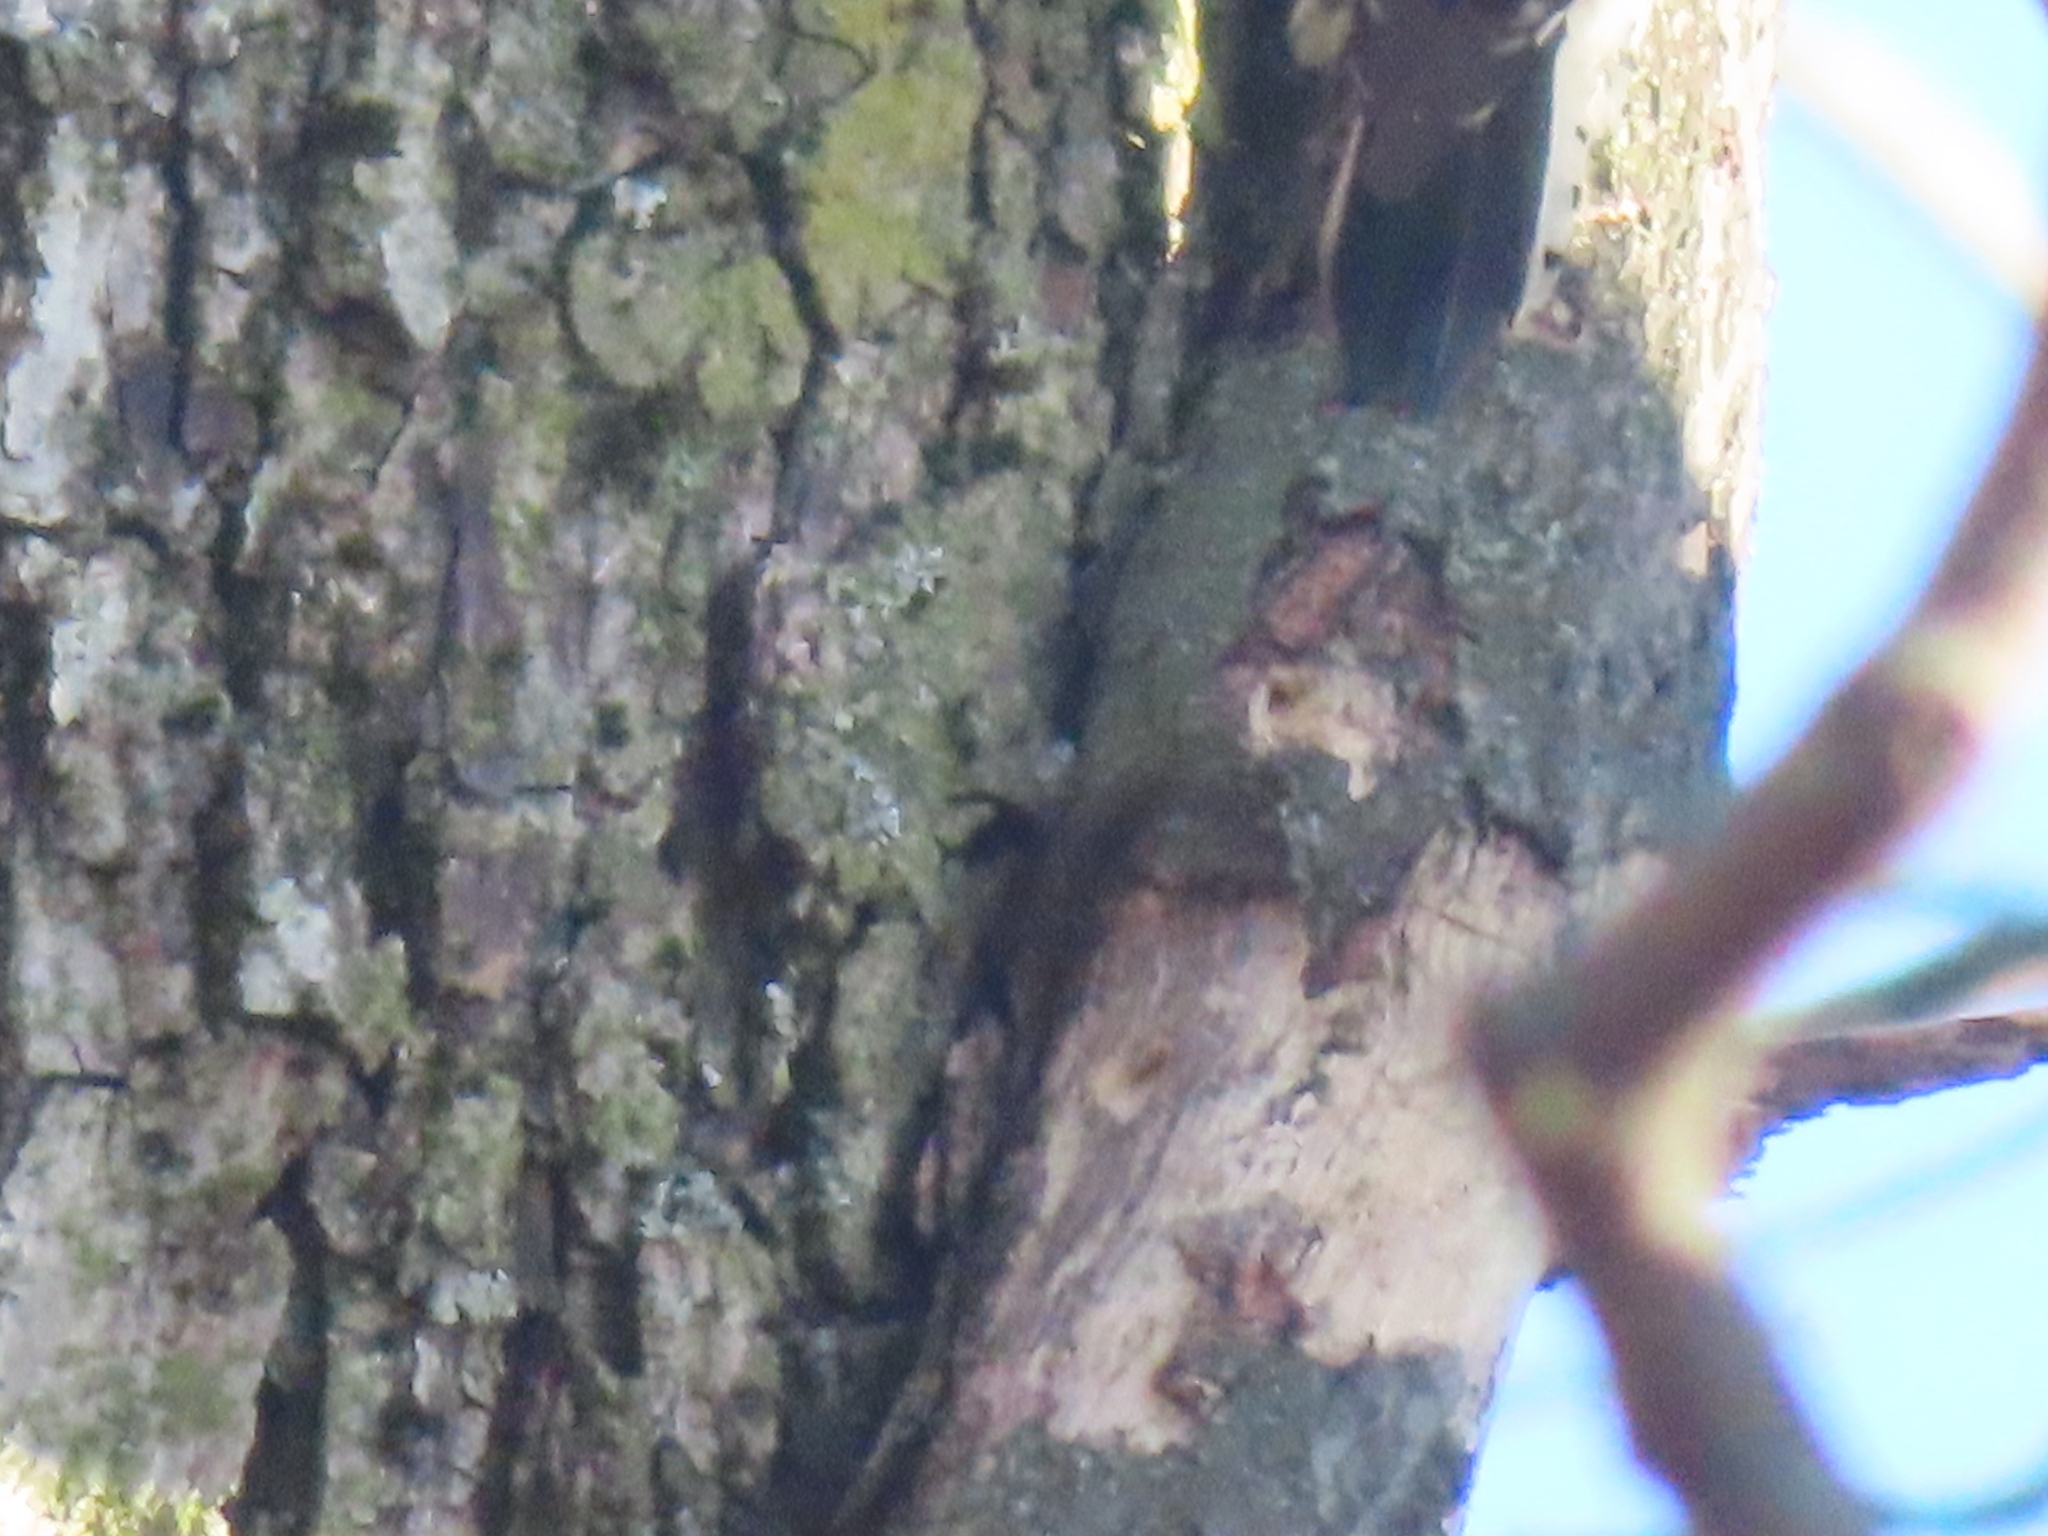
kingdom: Animalia
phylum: Chordata
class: Aves
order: Piciformes
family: Picidae
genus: Dryobates
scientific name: Dryobates pubescens
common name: Downy woodpecker
